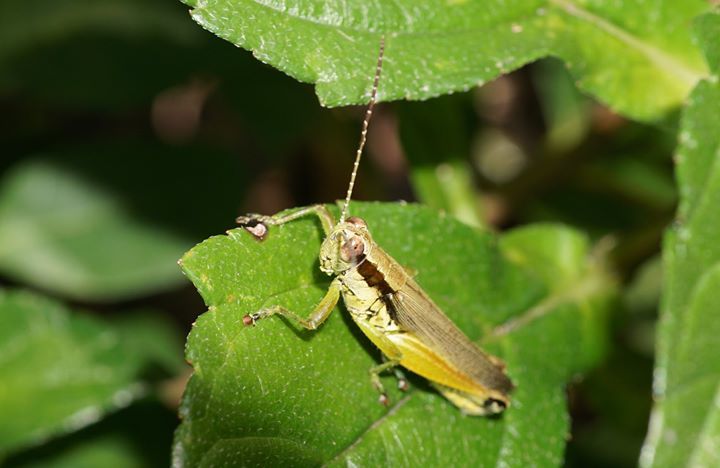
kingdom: Animalia
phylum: Arthropoda
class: Insecta
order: Orthoptera
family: Acrididae
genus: Paroxya
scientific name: Paroxya clavuligera
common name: Olive-green swamp grasshopper
